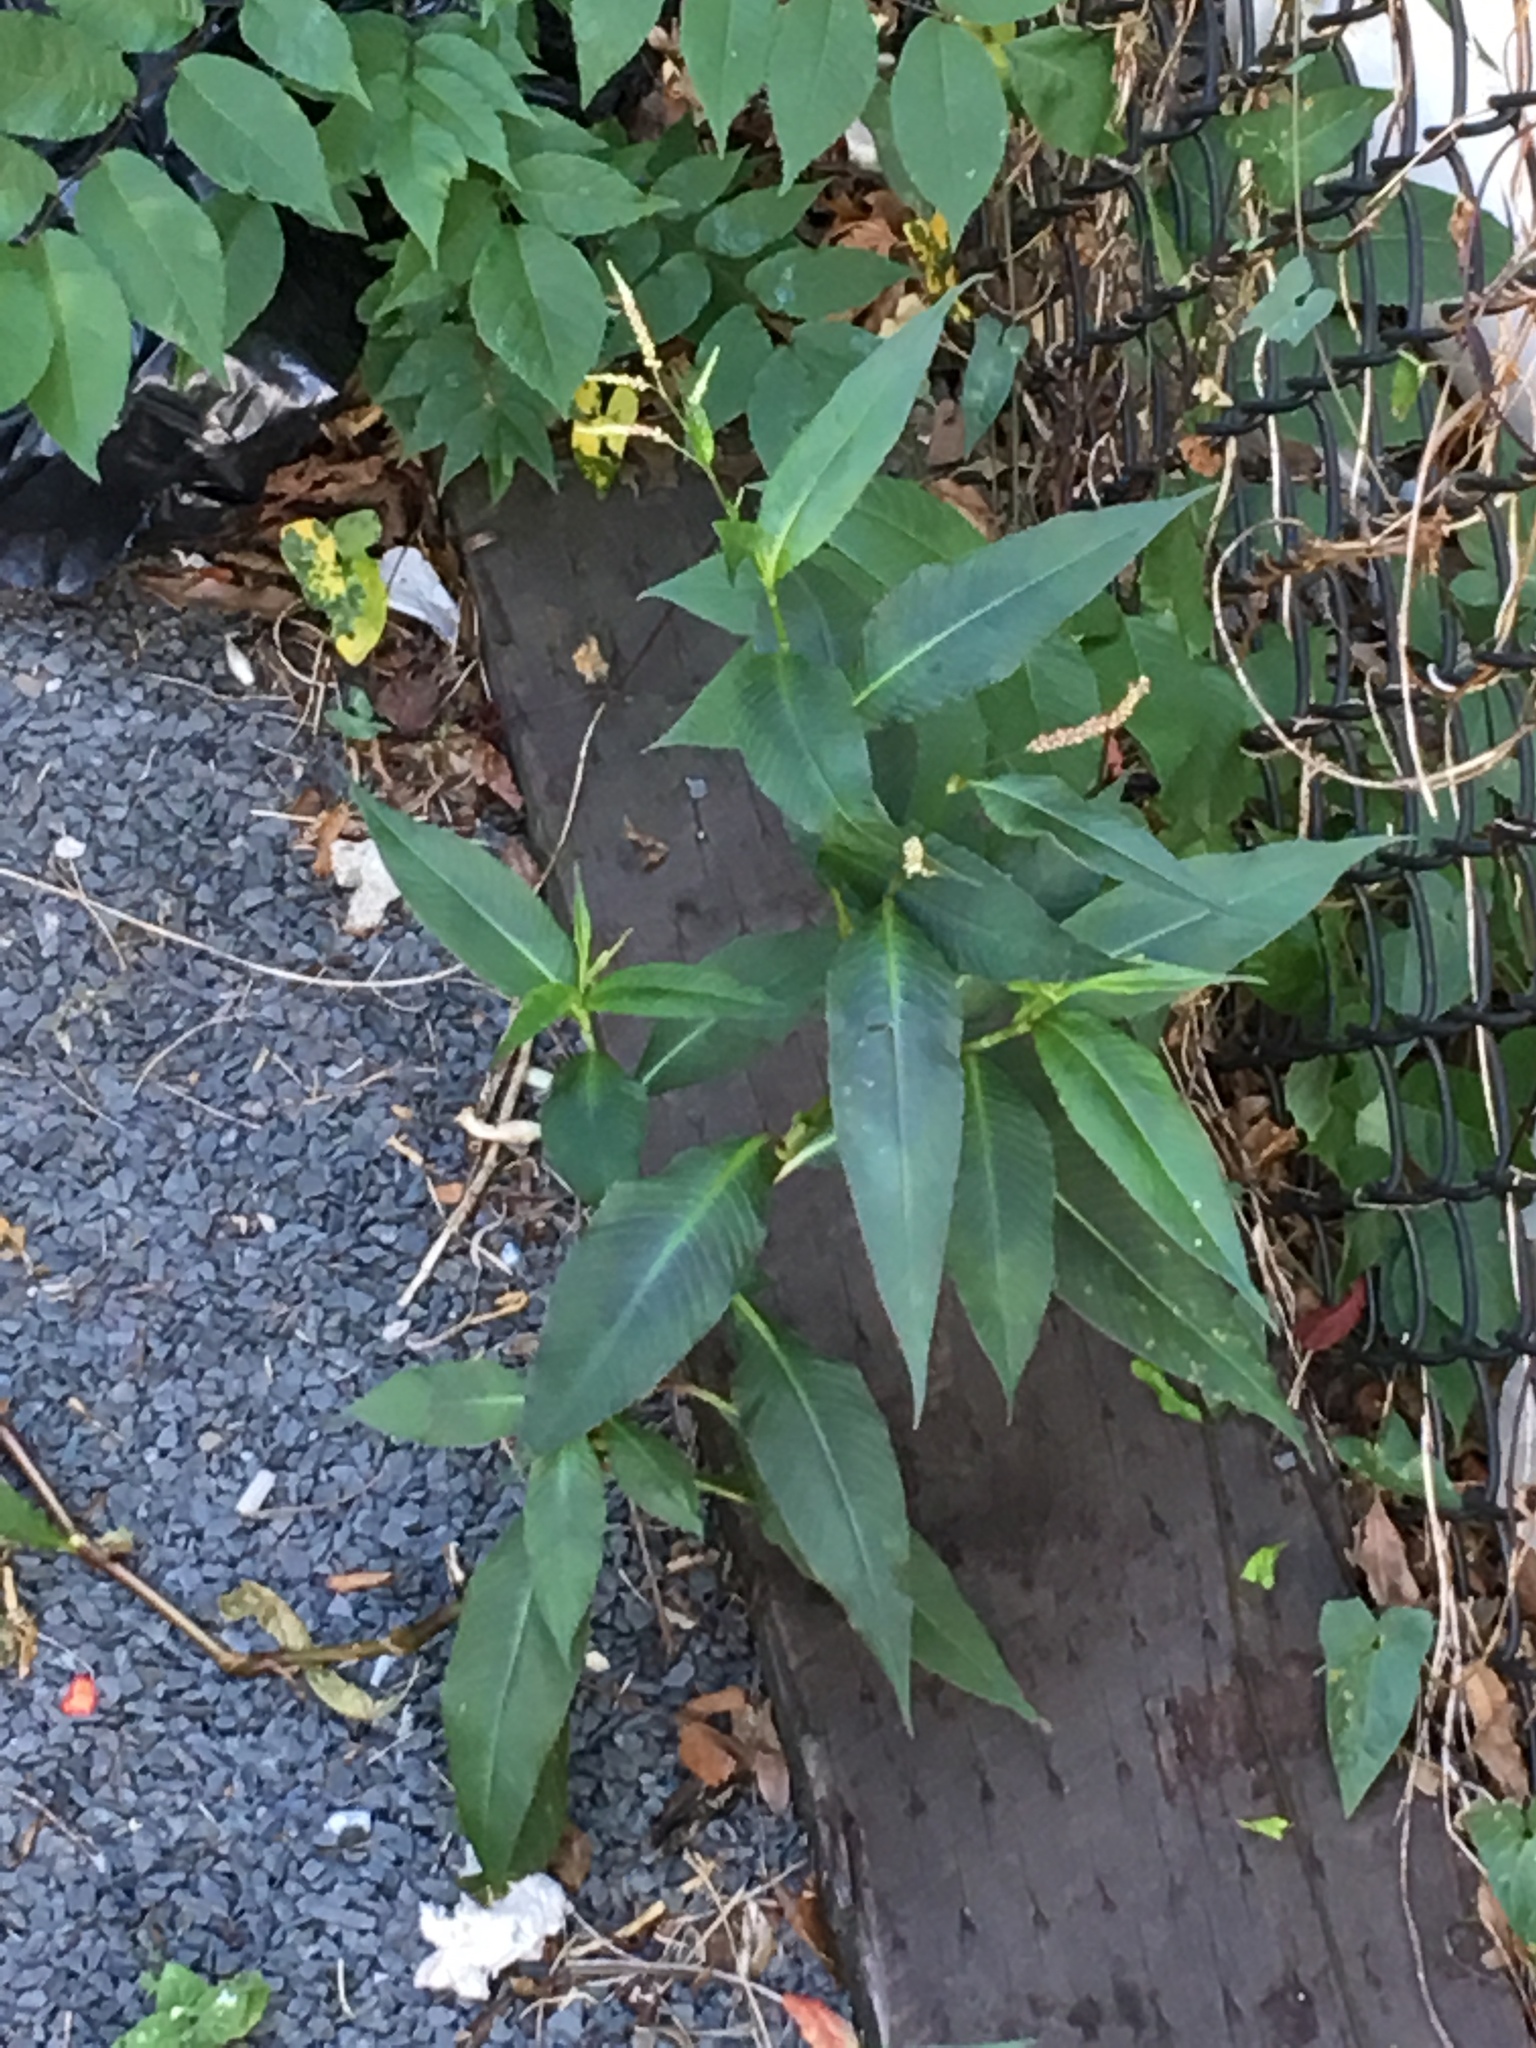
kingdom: Plantae
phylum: Tracheophyta
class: Magnoliopsida
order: Caryophyllales
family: Polygonaceae
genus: Persicaria
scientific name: Persicaria extremiorientalis
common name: Far-eastern smartweed
